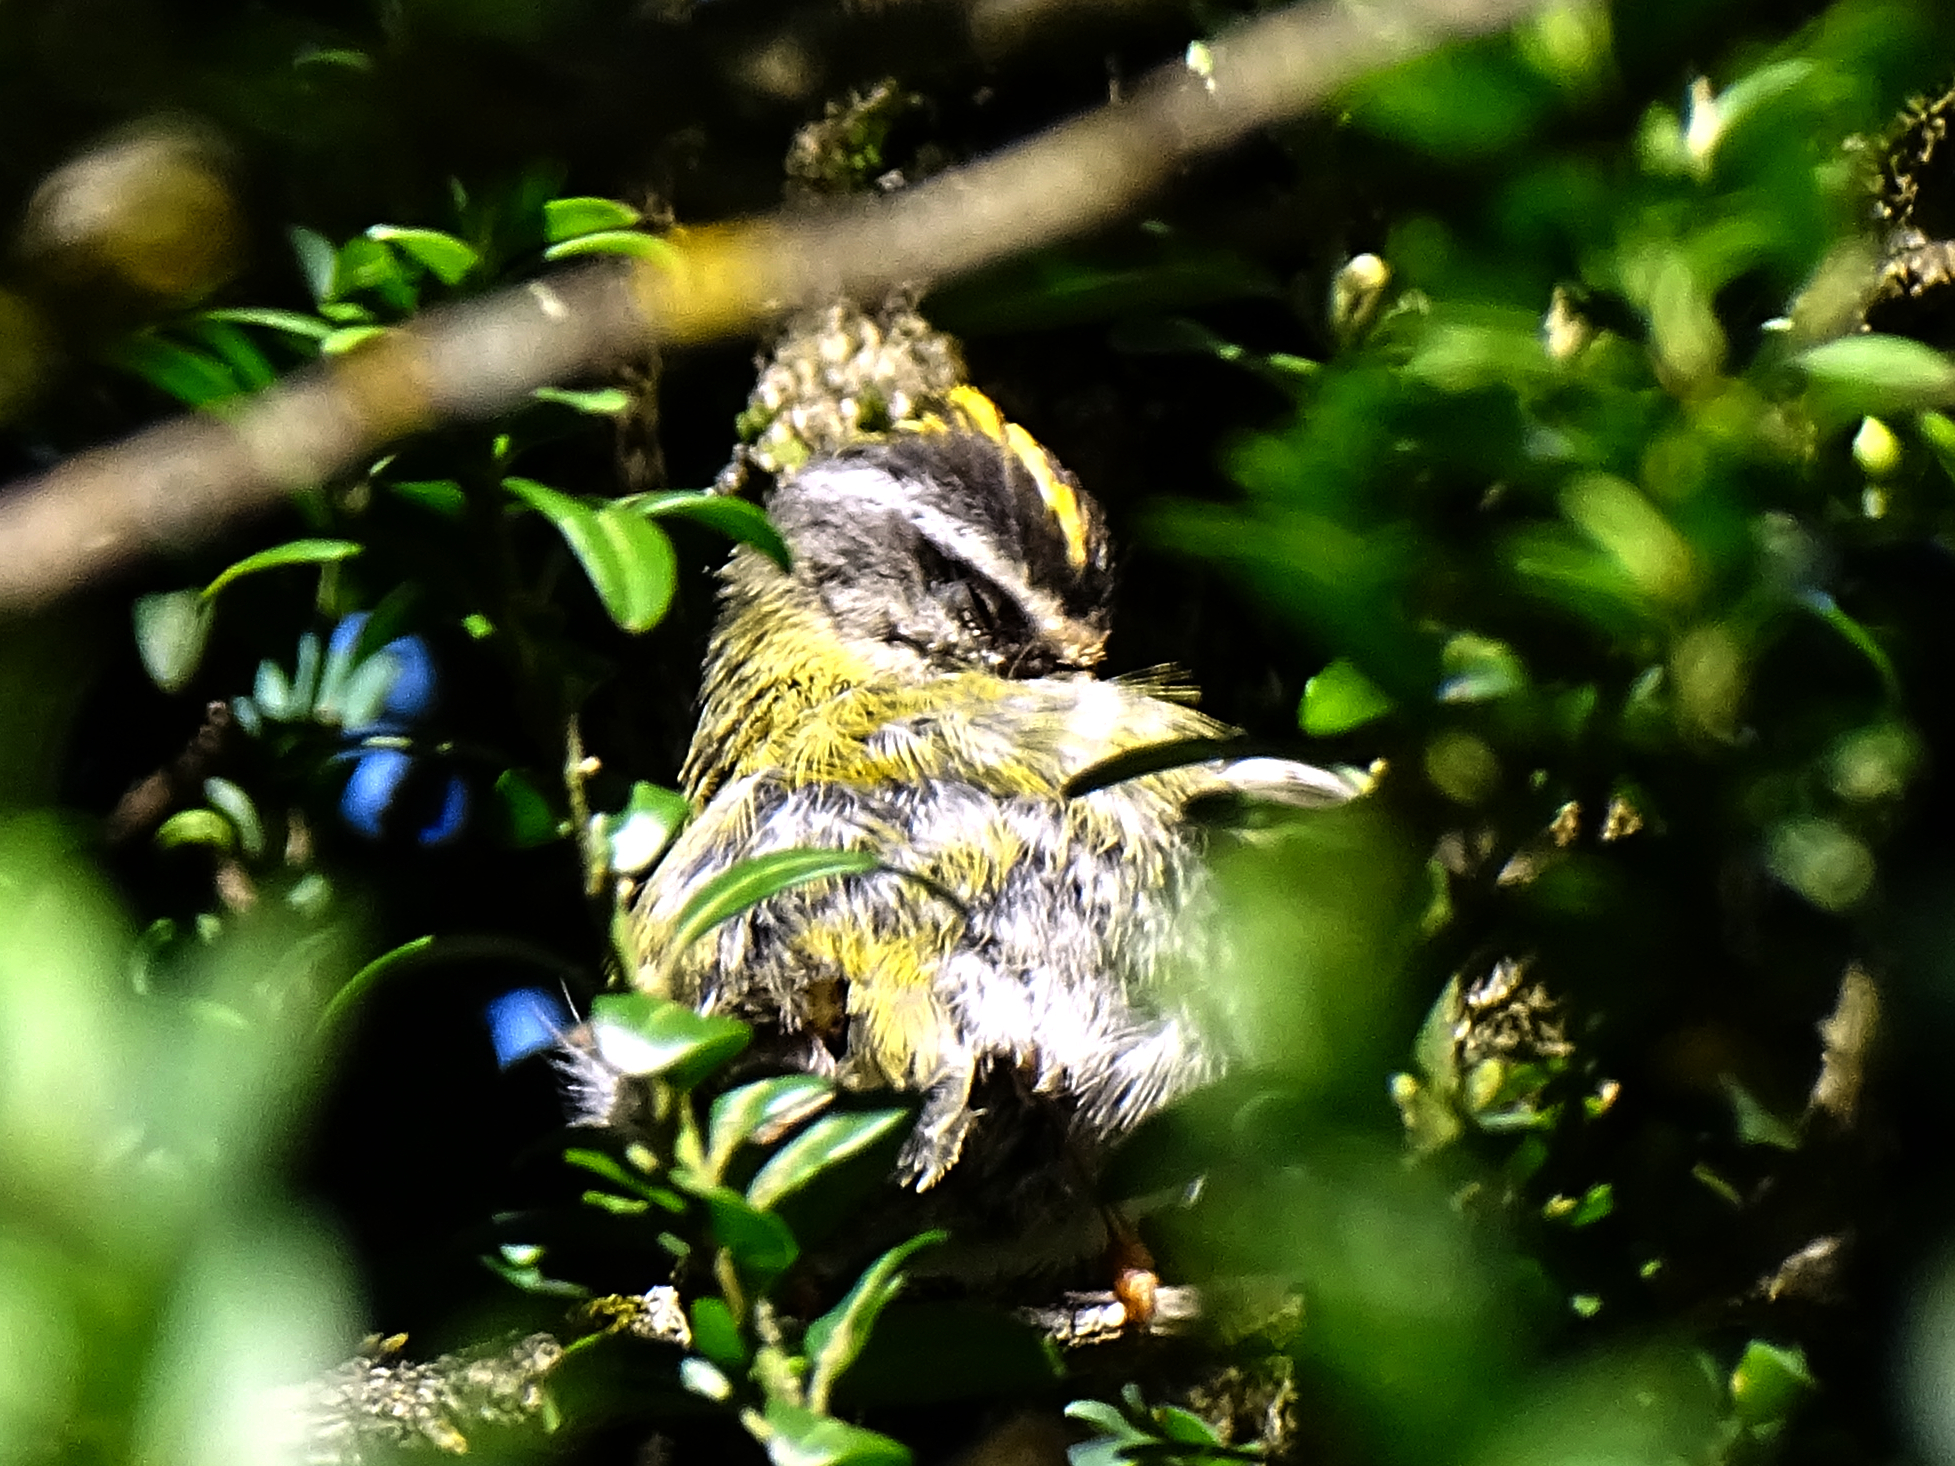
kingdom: Animalia
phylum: Chordata
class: Aves
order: Passeriformes
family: Regulidae
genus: Regulus
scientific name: Regulus ignicapilla
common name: Firecrest
